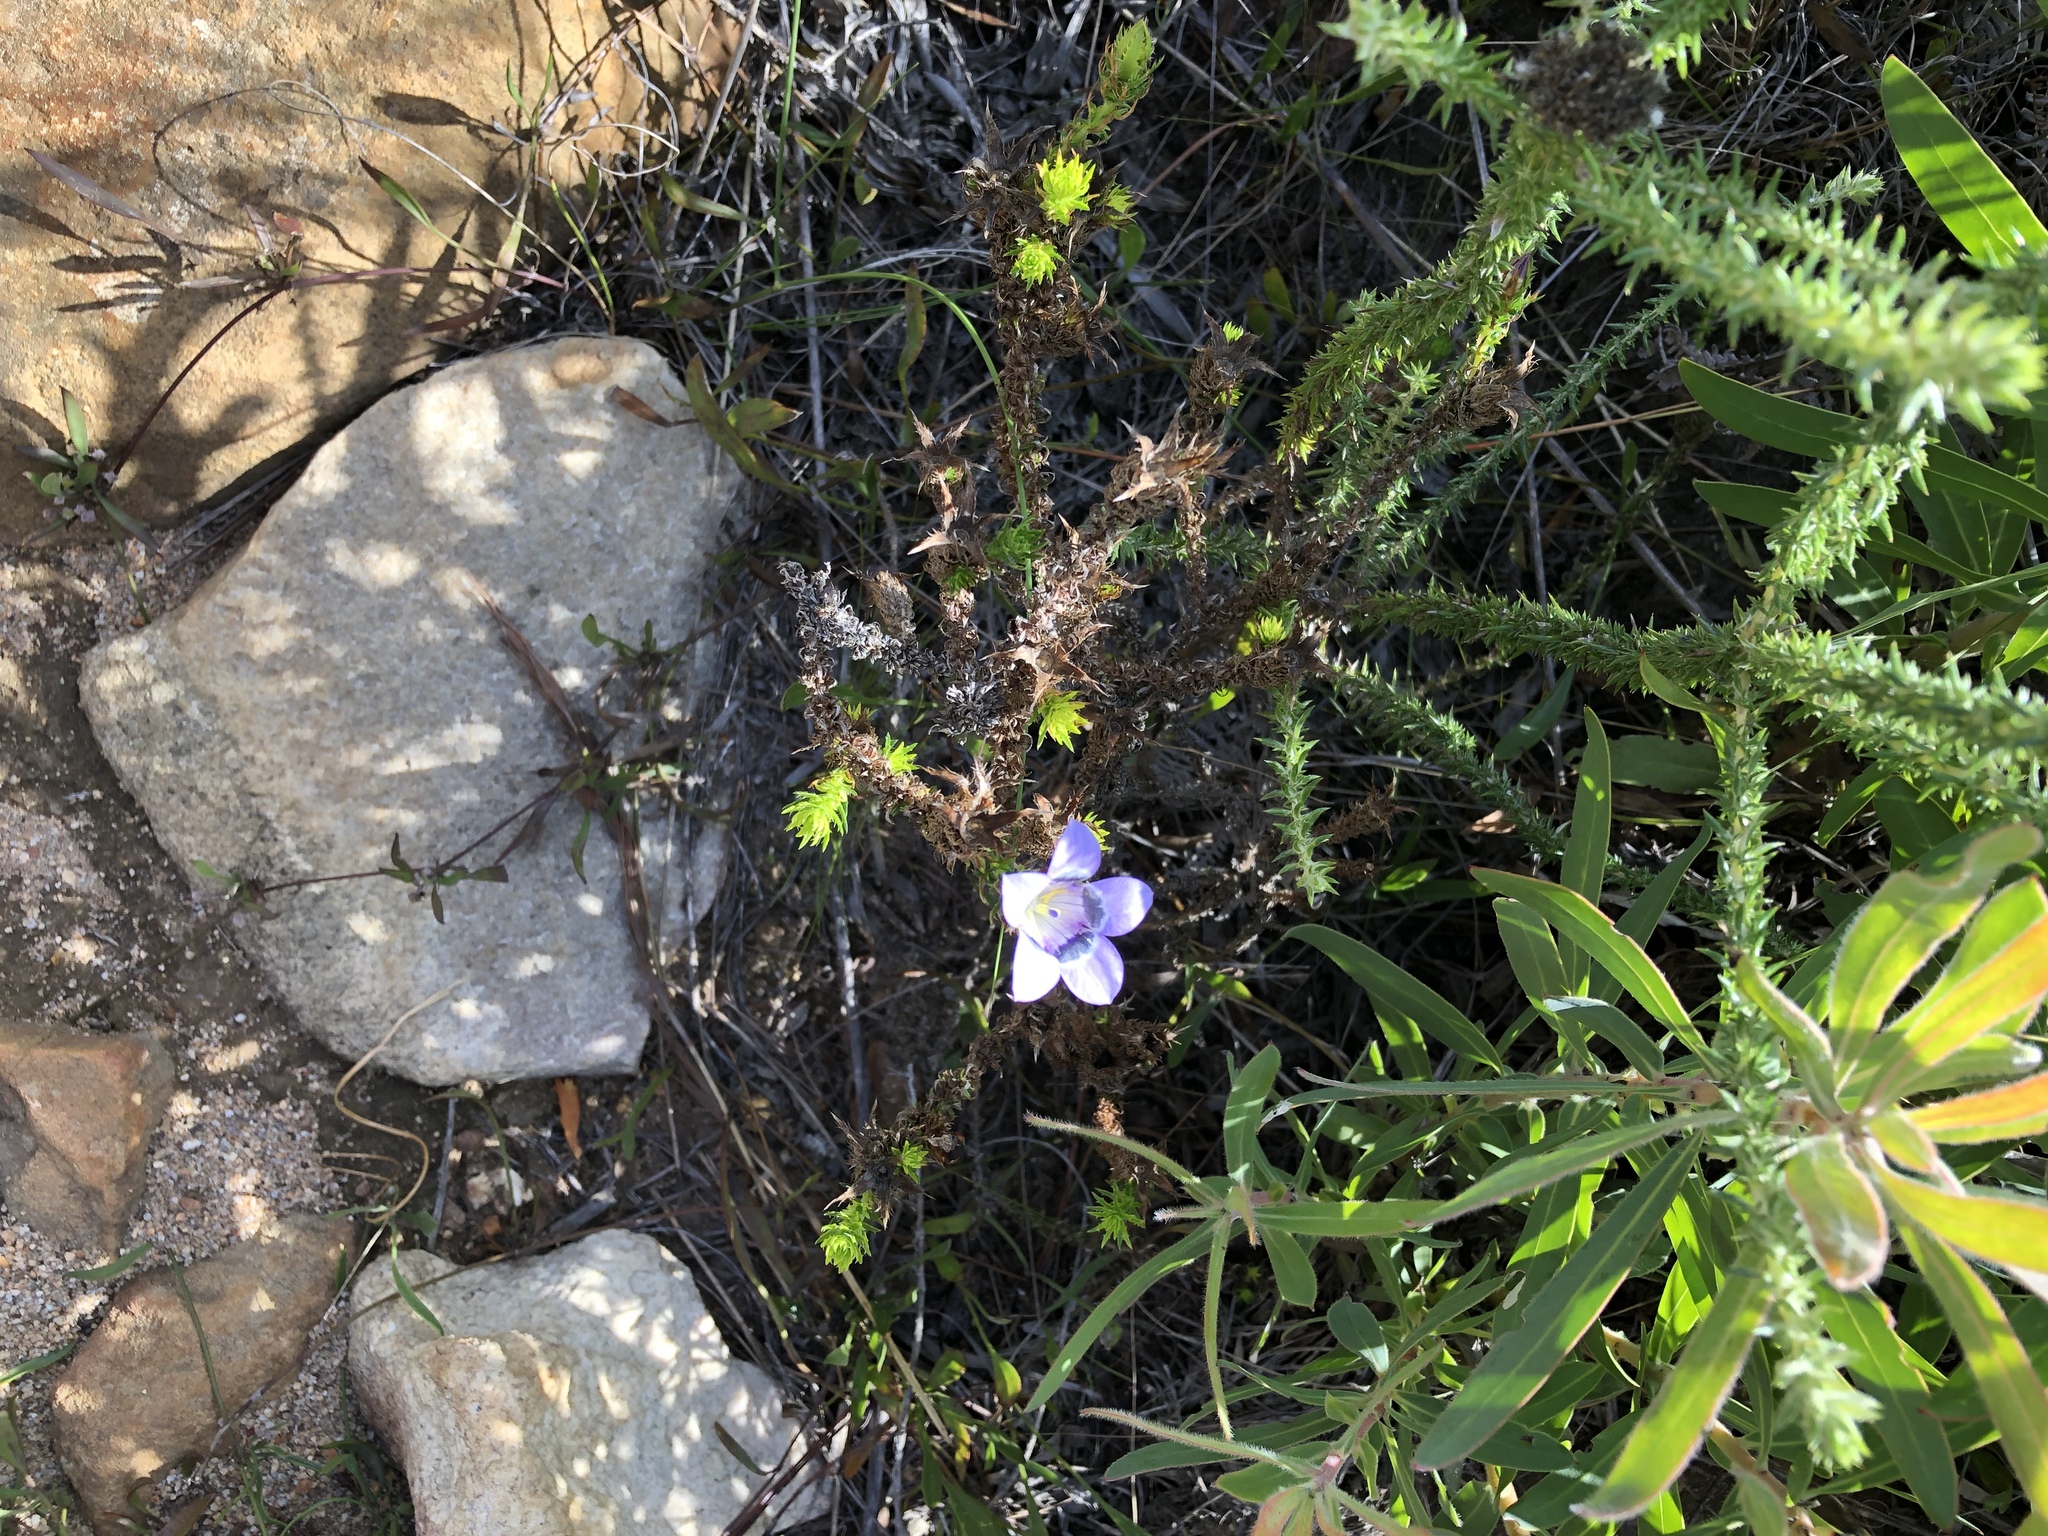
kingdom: Plantae
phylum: Tracheophyta
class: Magnoliopsida
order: Asterales
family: Campanulaceae
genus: Roella
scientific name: Roella ciliata
